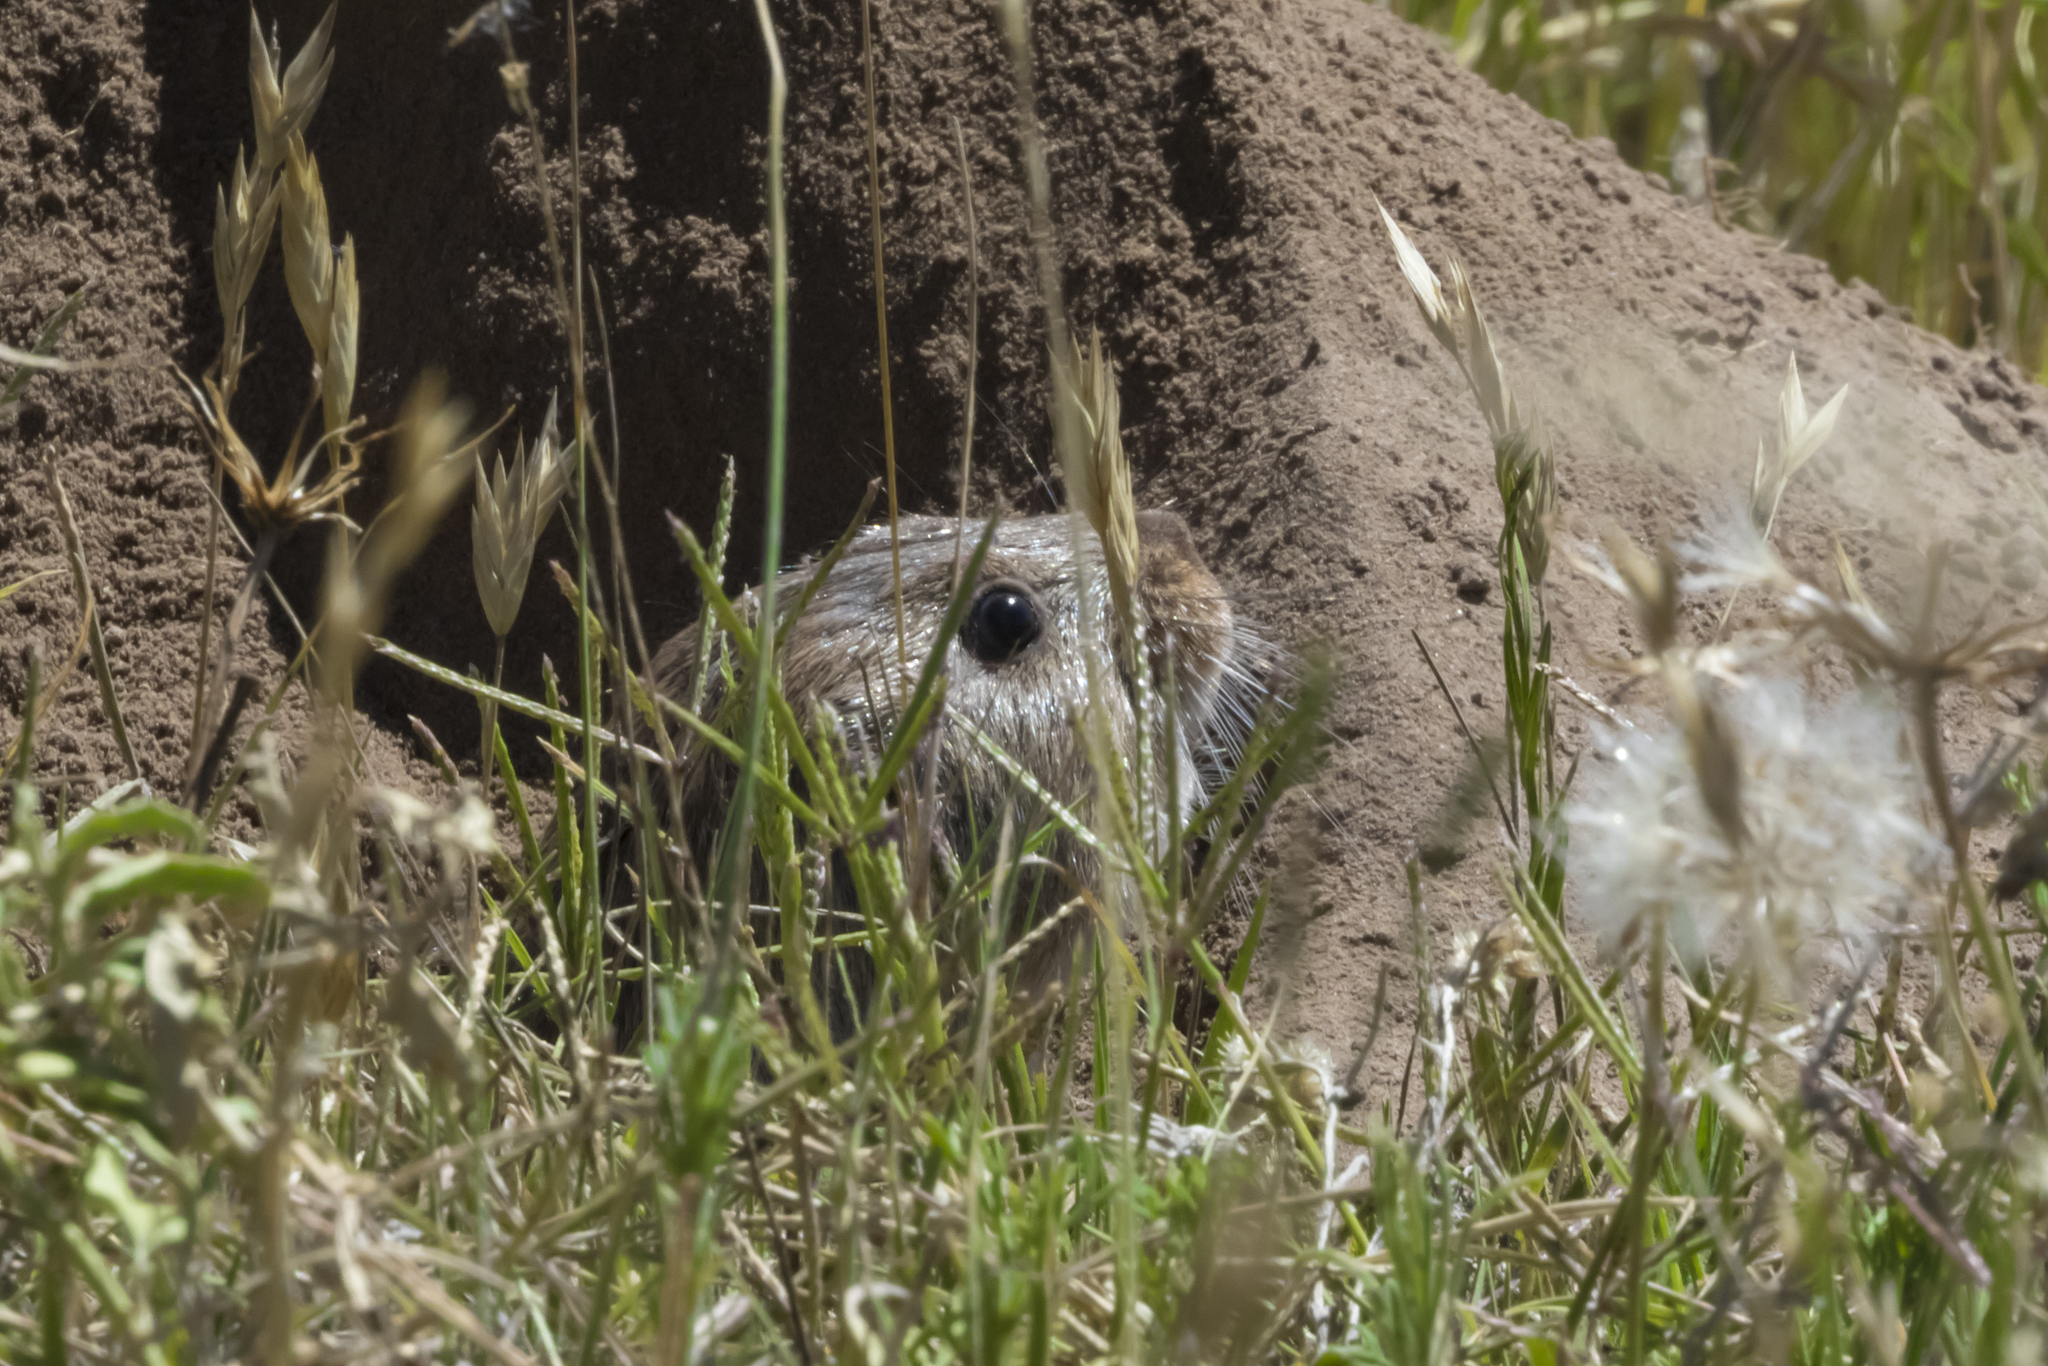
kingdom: Animalia
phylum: Chordata
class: Mammalia
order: Rodentia
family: Ctenomyidae
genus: Ctenomys
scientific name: Ctenomys mendocinus
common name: Mendoza tuco-tuco
